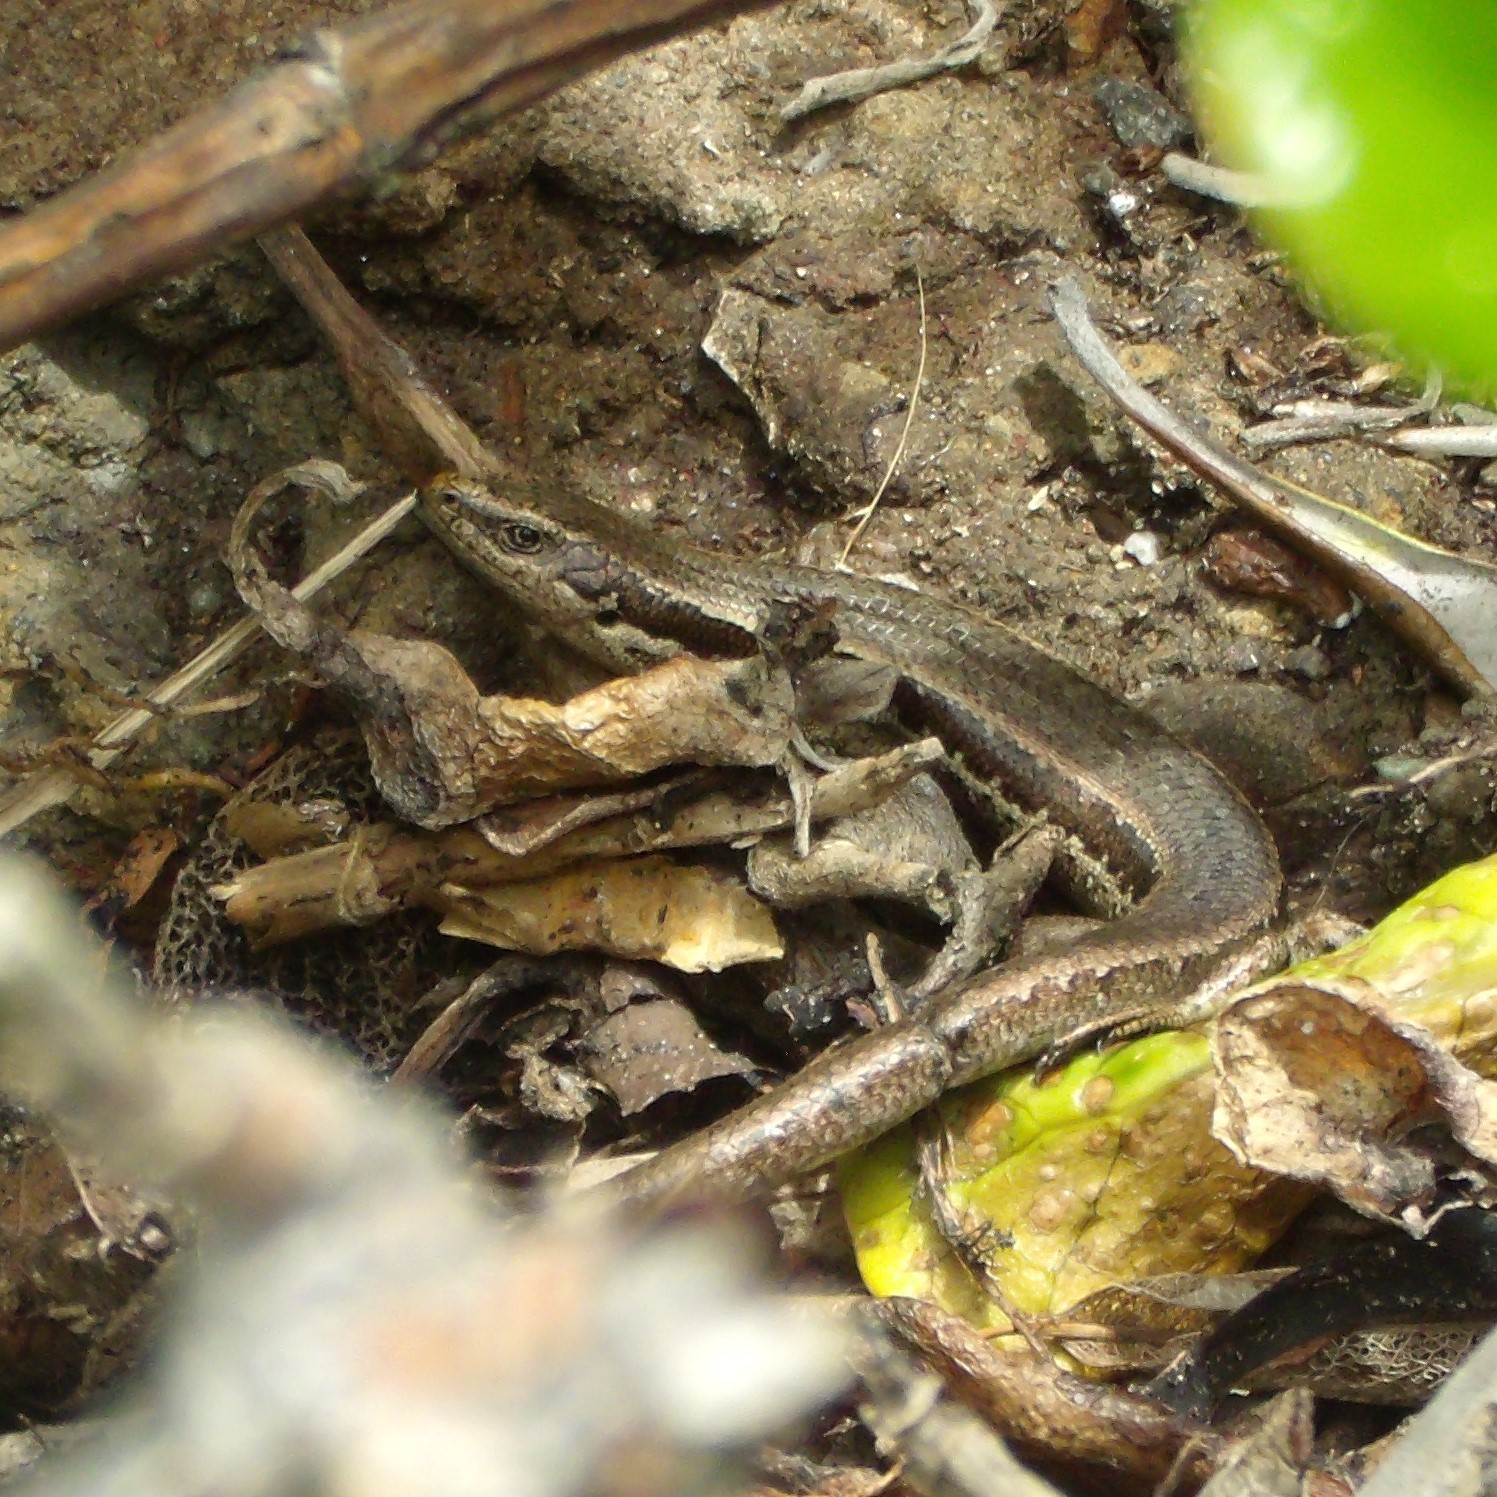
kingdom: Animalia
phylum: Chordata
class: Squamata
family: Scincidae
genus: Oligosoma
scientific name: Oligosoma polychroma
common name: Common new zealand skink
